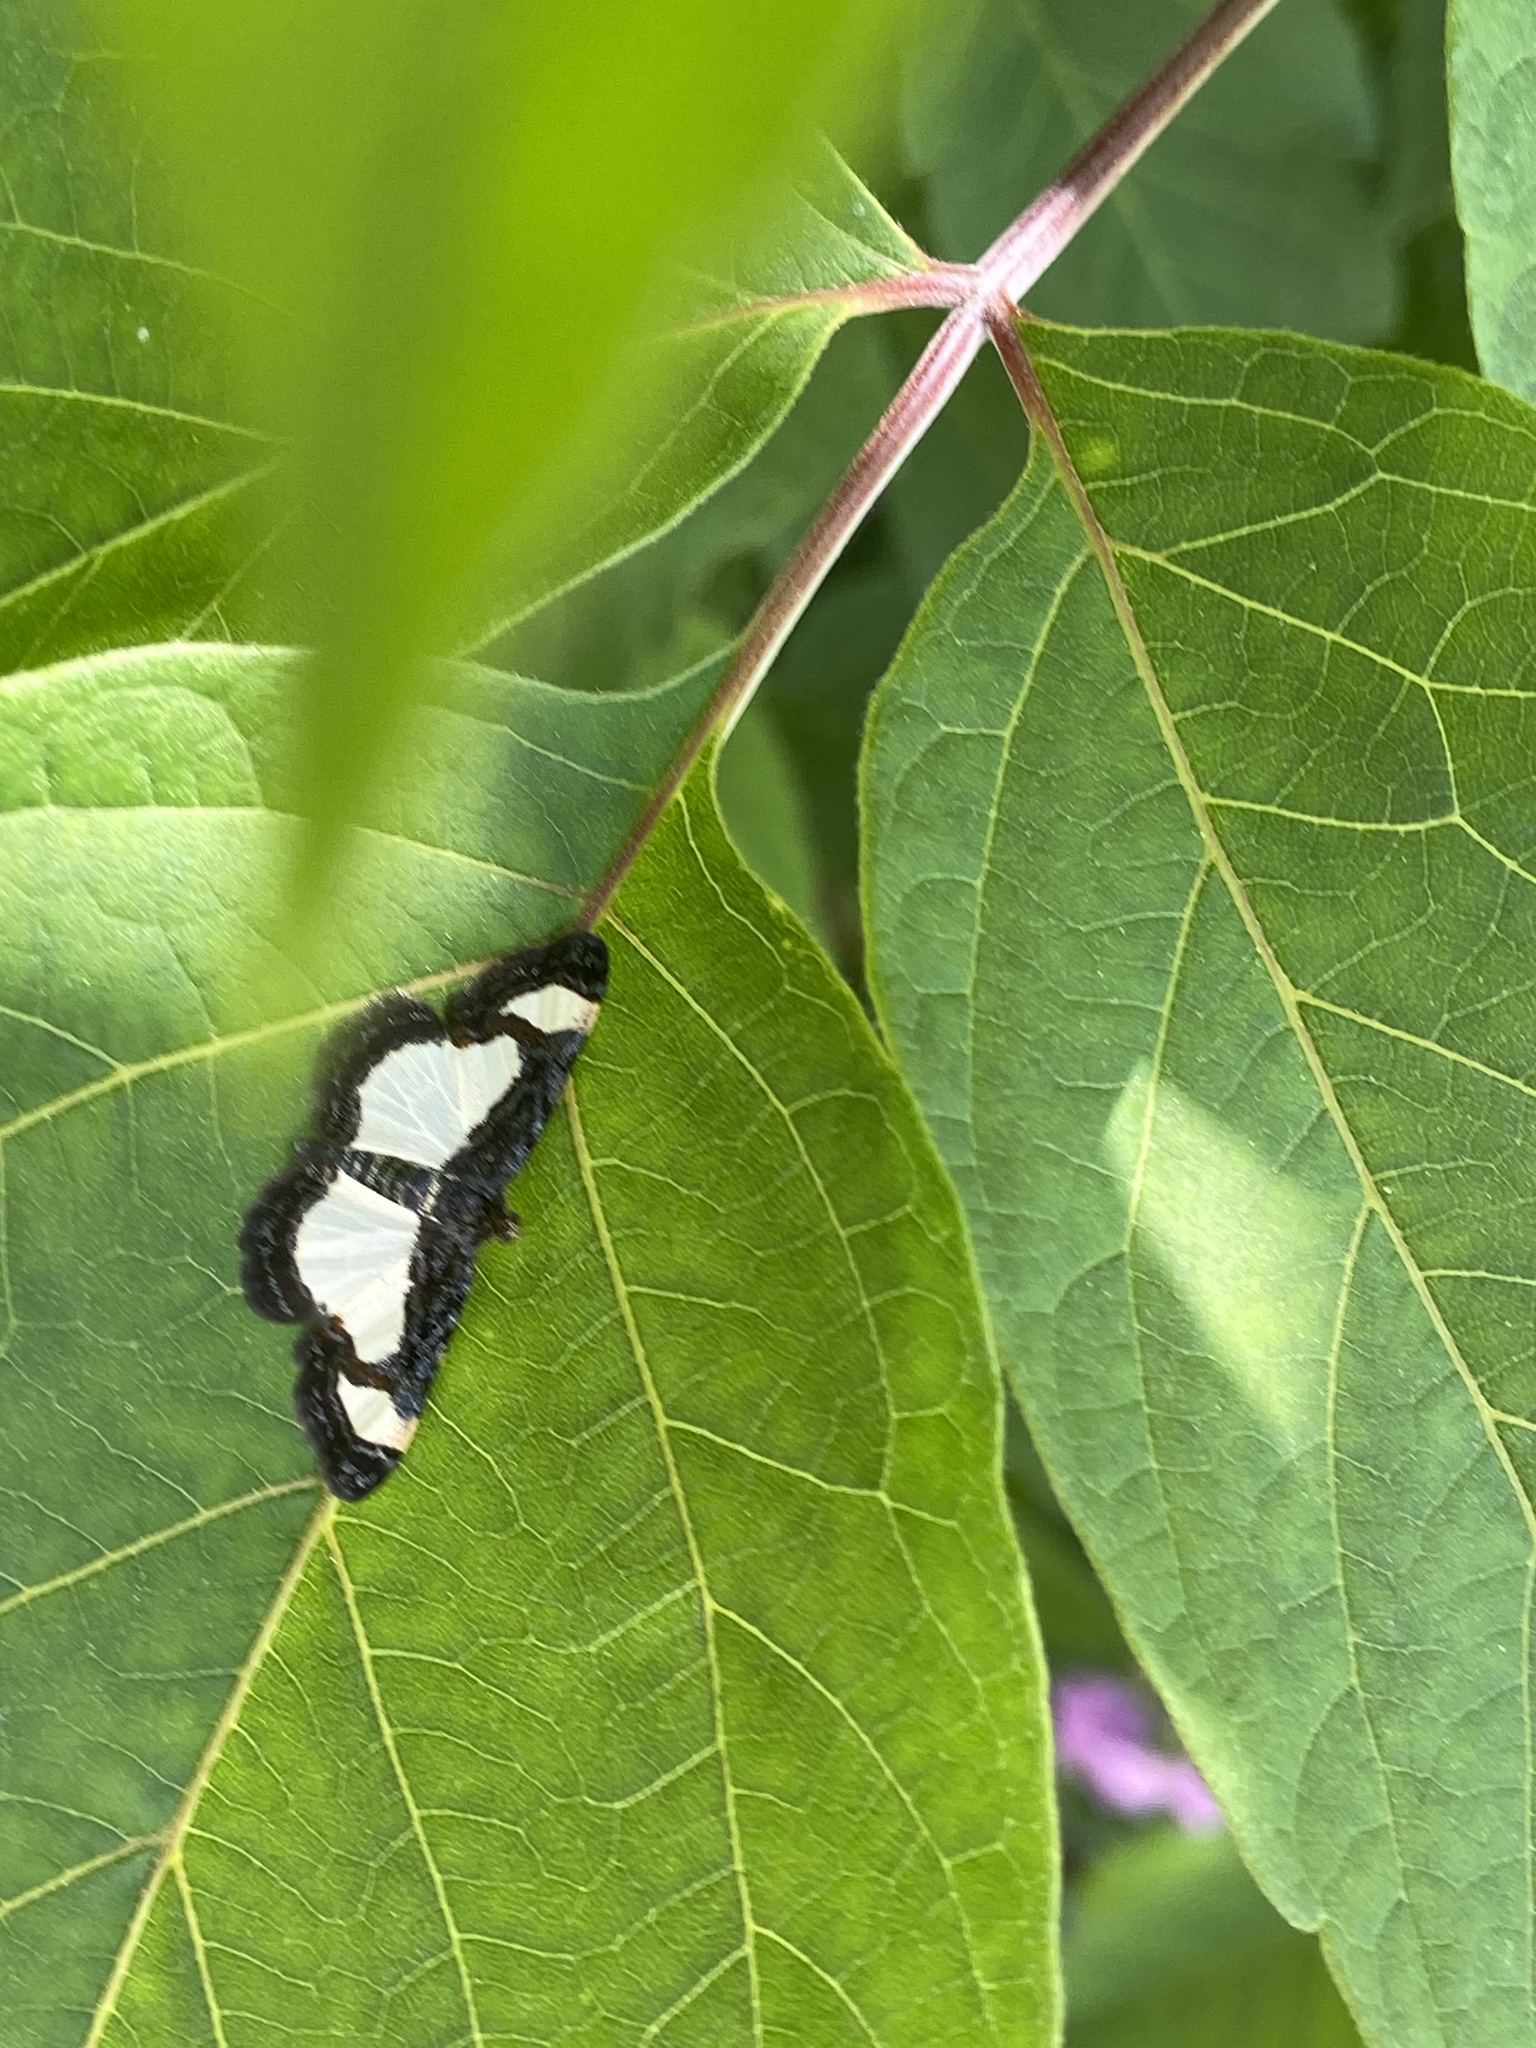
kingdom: Animalia
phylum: Arthropoda
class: Insecta
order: Lepidoptera
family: Geometridae
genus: Heliomata
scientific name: Heliomata cycladata
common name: Common spring moth
